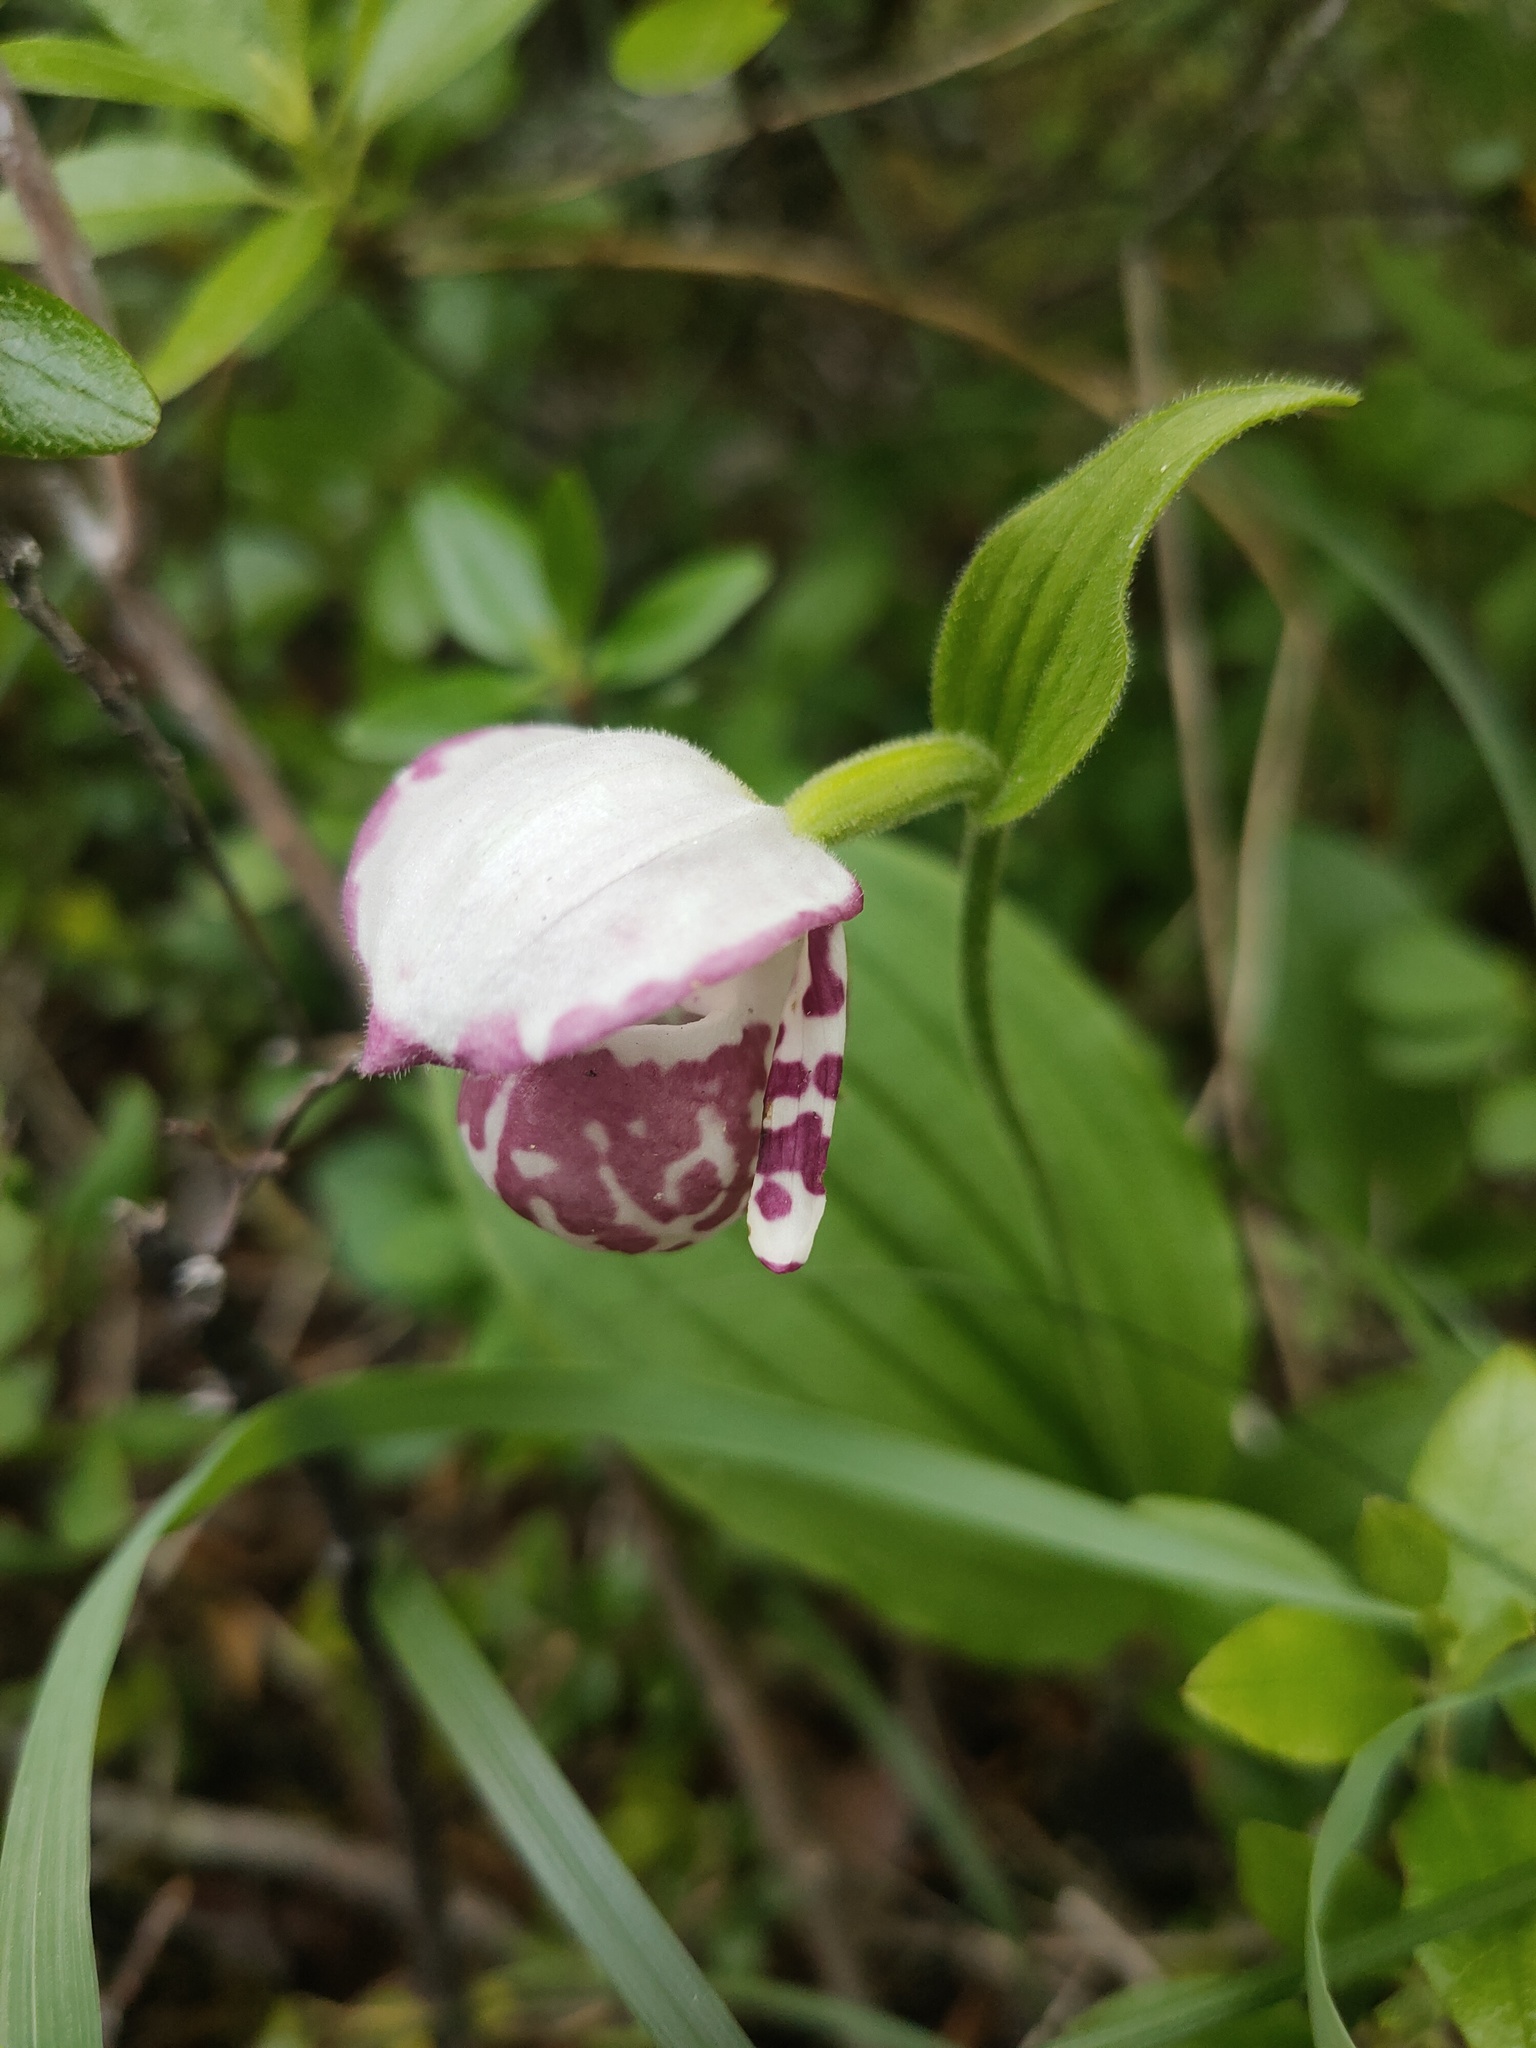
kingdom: Plantae
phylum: Tracheophyta
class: Liliopsida
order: Asparagales
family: Orchidaceae
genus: Cypripedium
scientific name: Cypripedium guttatum
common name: Pink lady slipper
